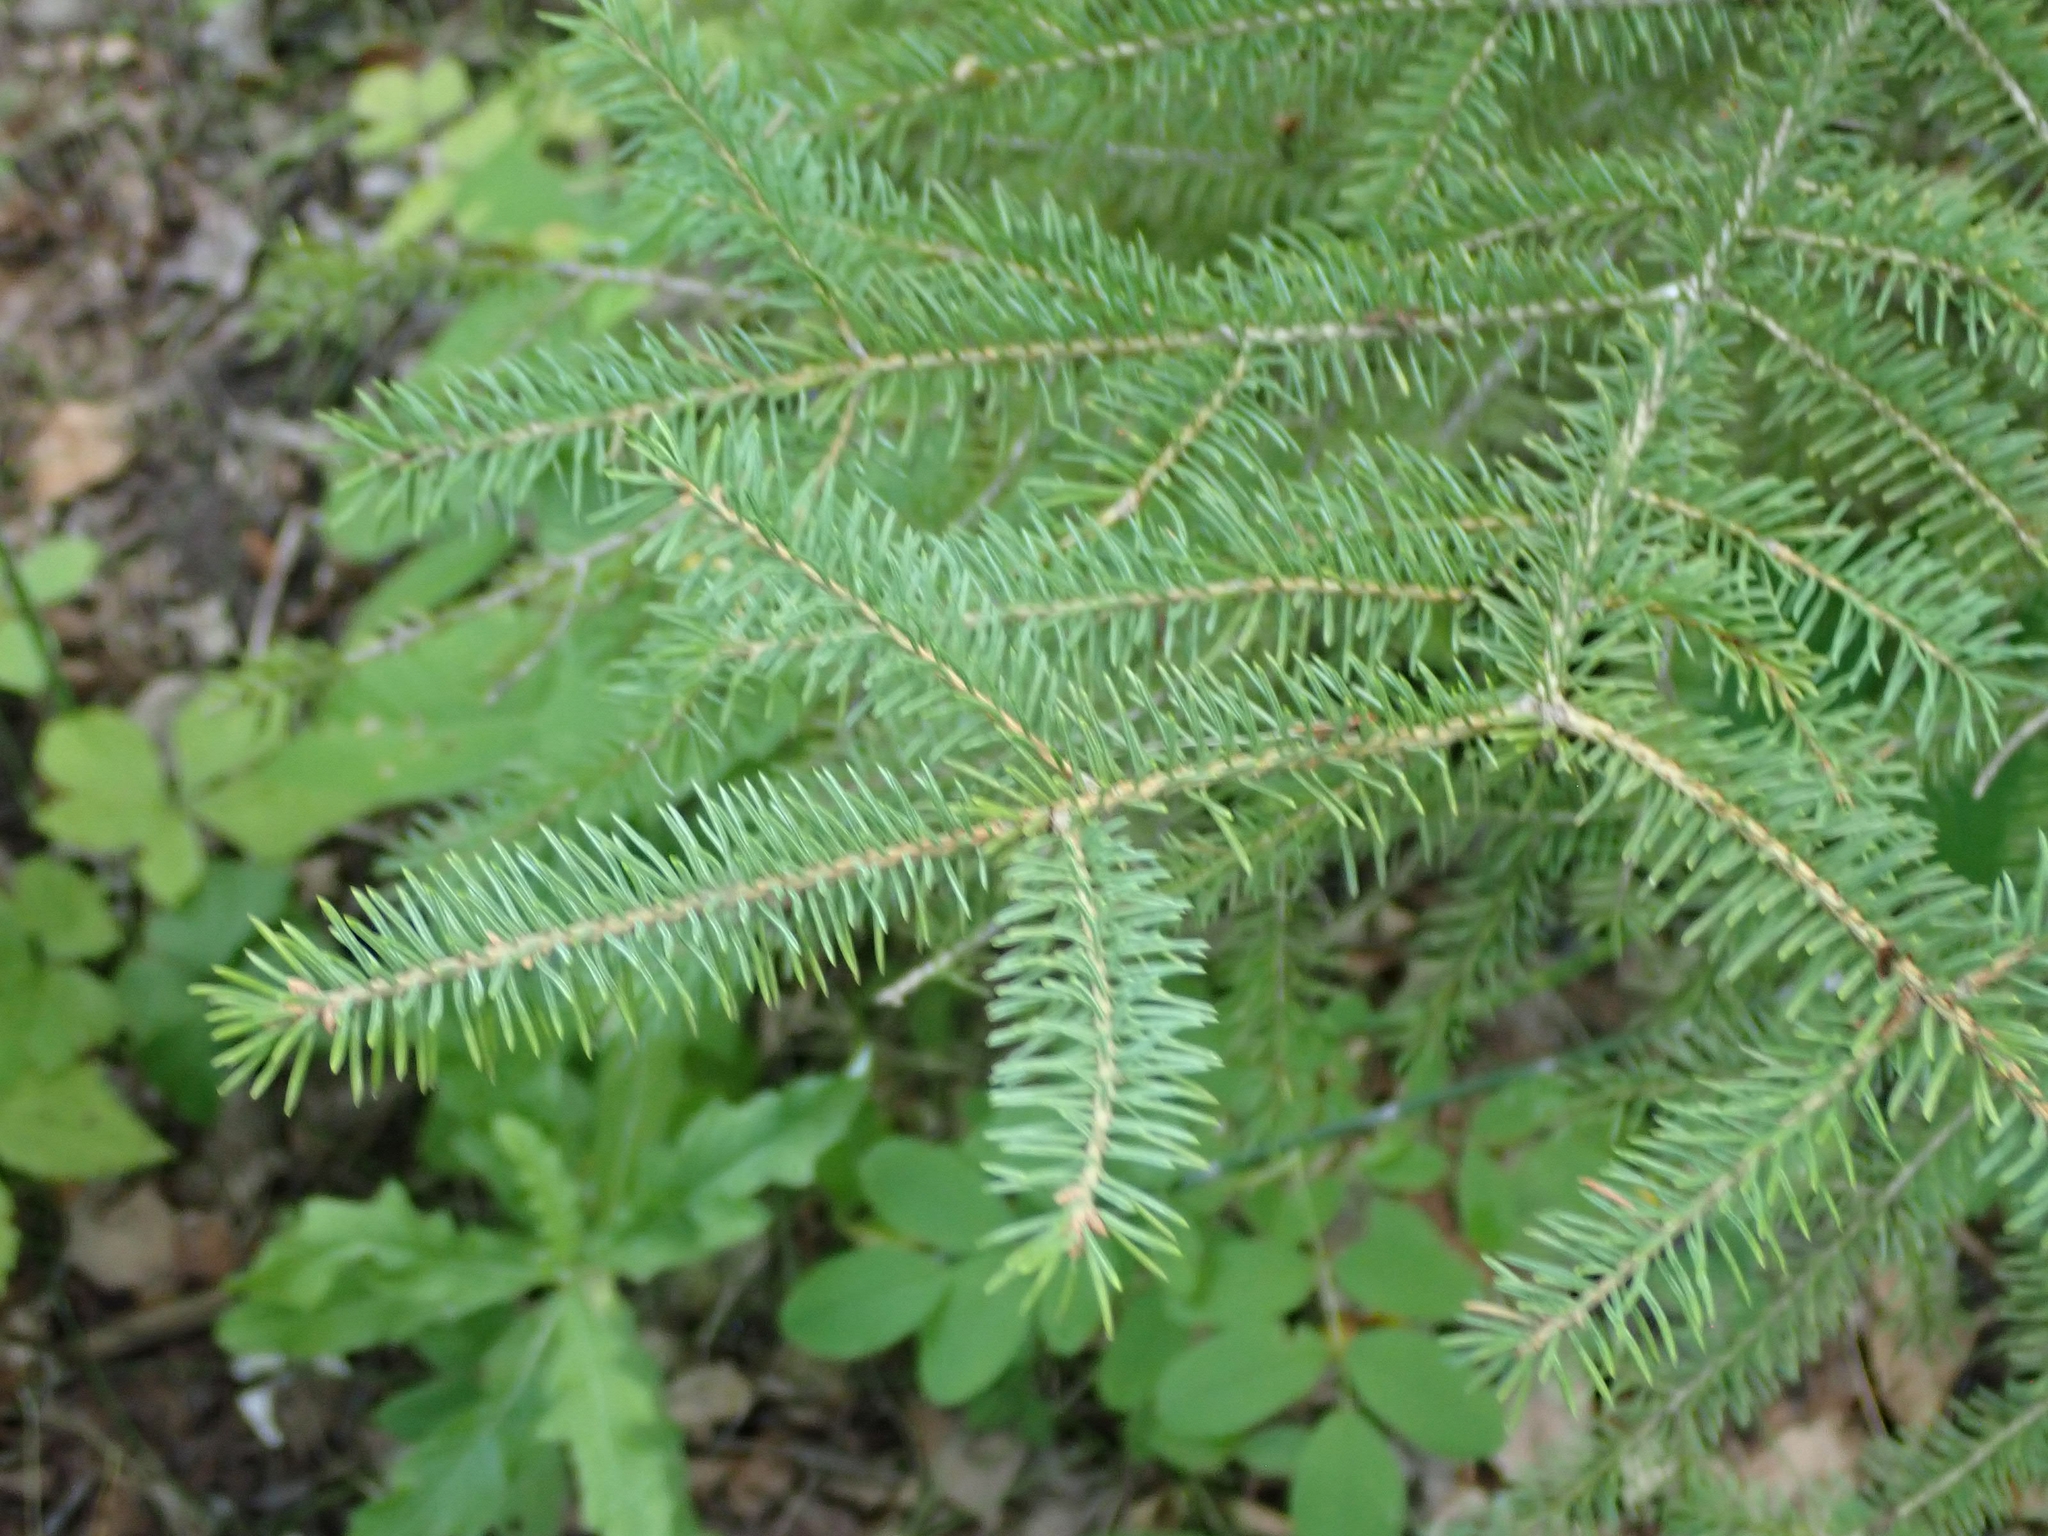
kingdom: Plantae
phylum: Tracheophyta
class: Pinopsida
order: Pinales
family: Pinaceae
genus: Picea
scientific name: Picea glauca
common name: White spruce
